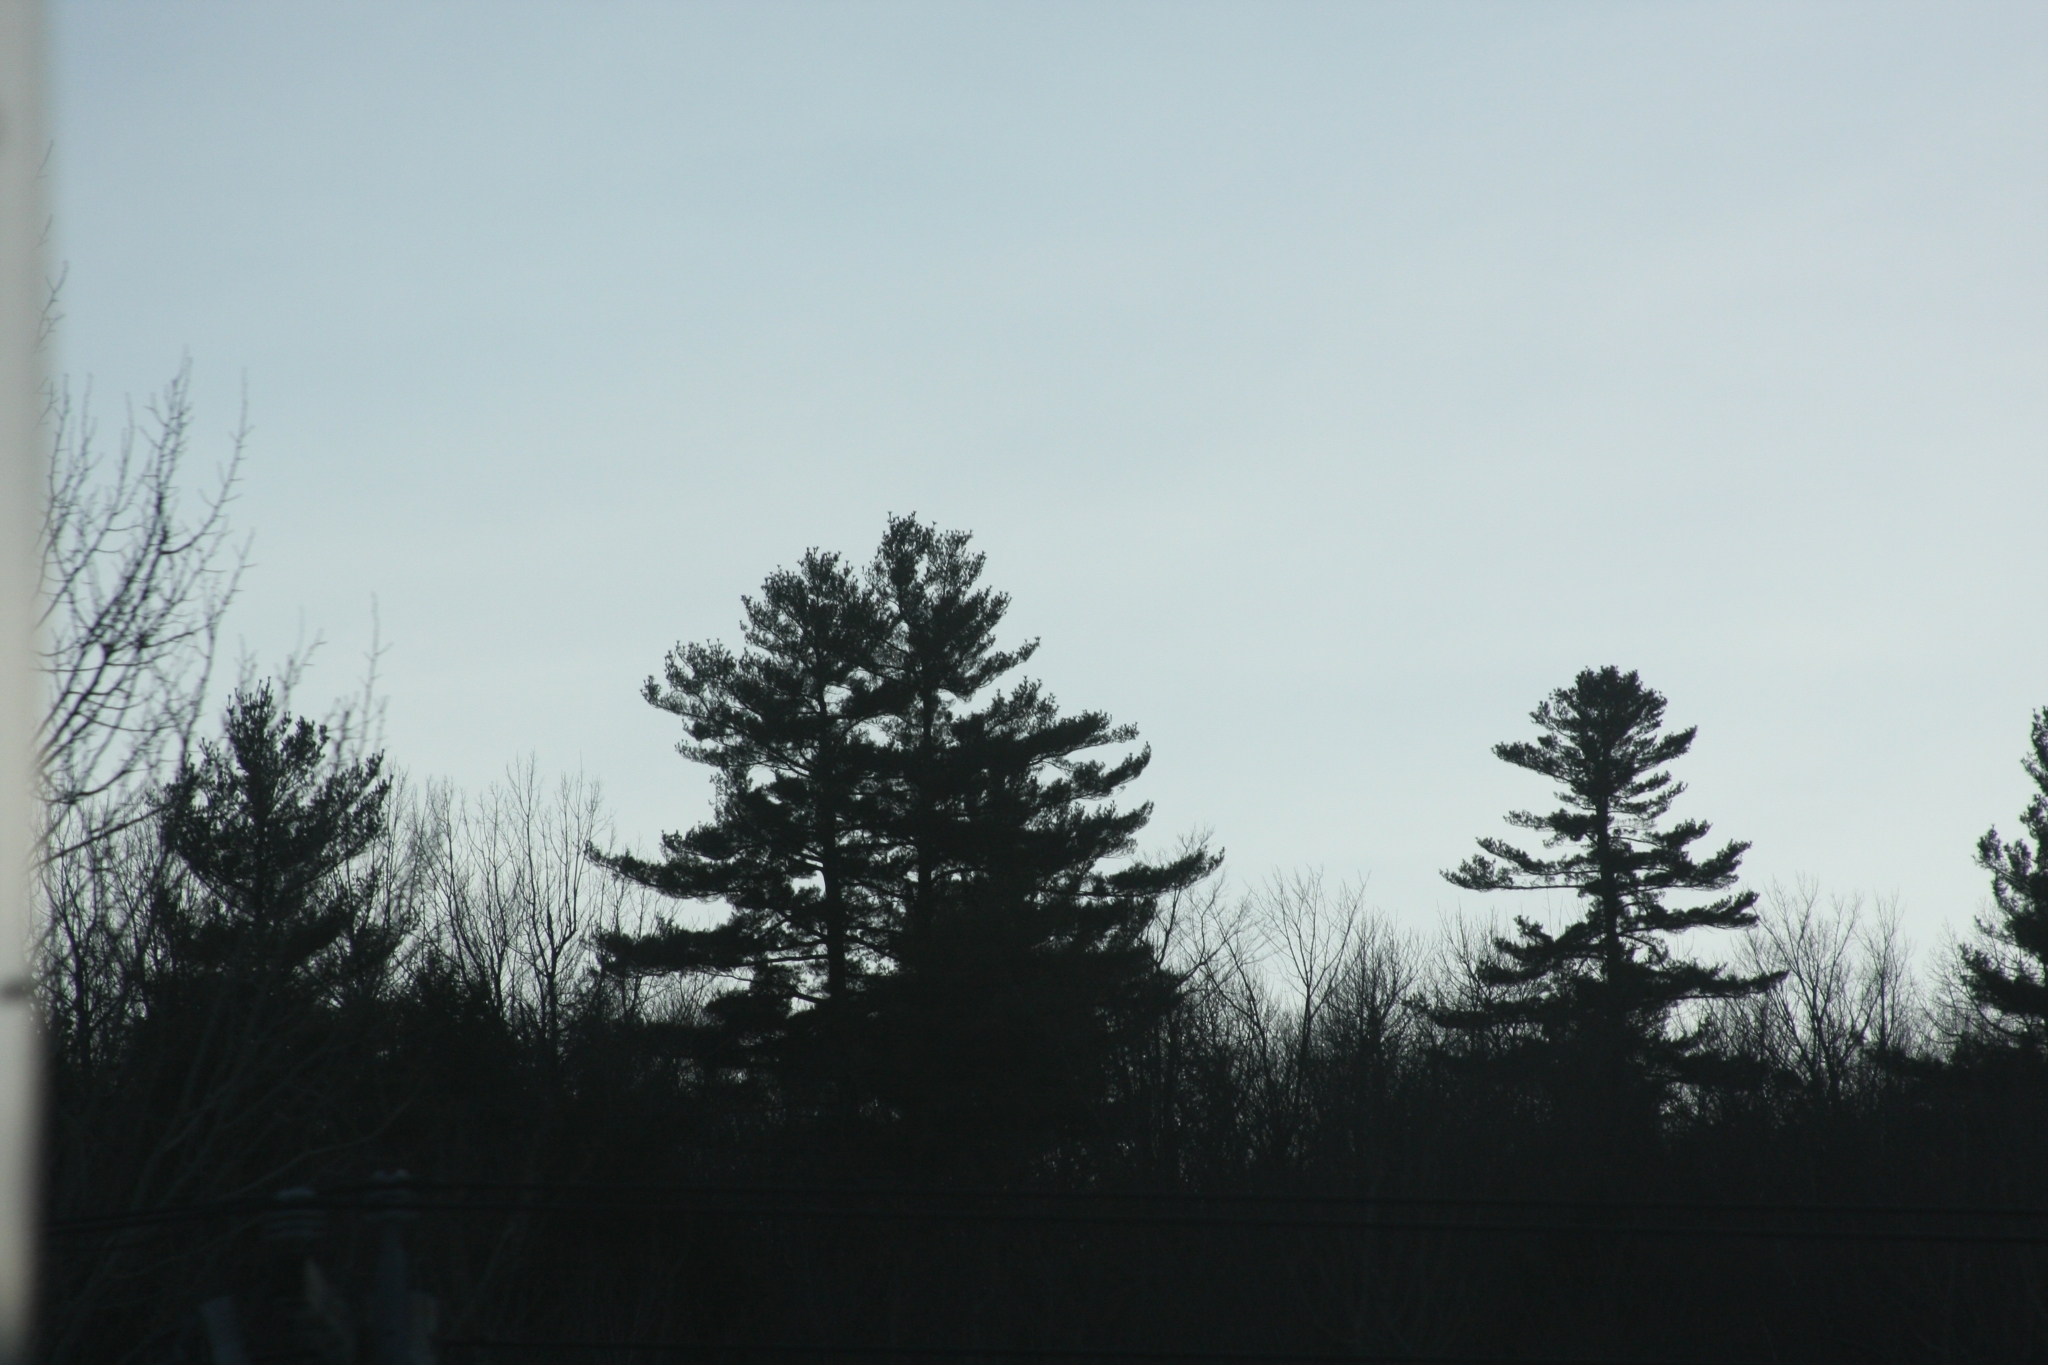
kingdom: Plantae
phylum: Tracheophyta
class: Pinopsida
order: Pinales
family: Pinaceae
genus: Pinus
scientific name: Pinus strobus
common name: Weymouth pine
